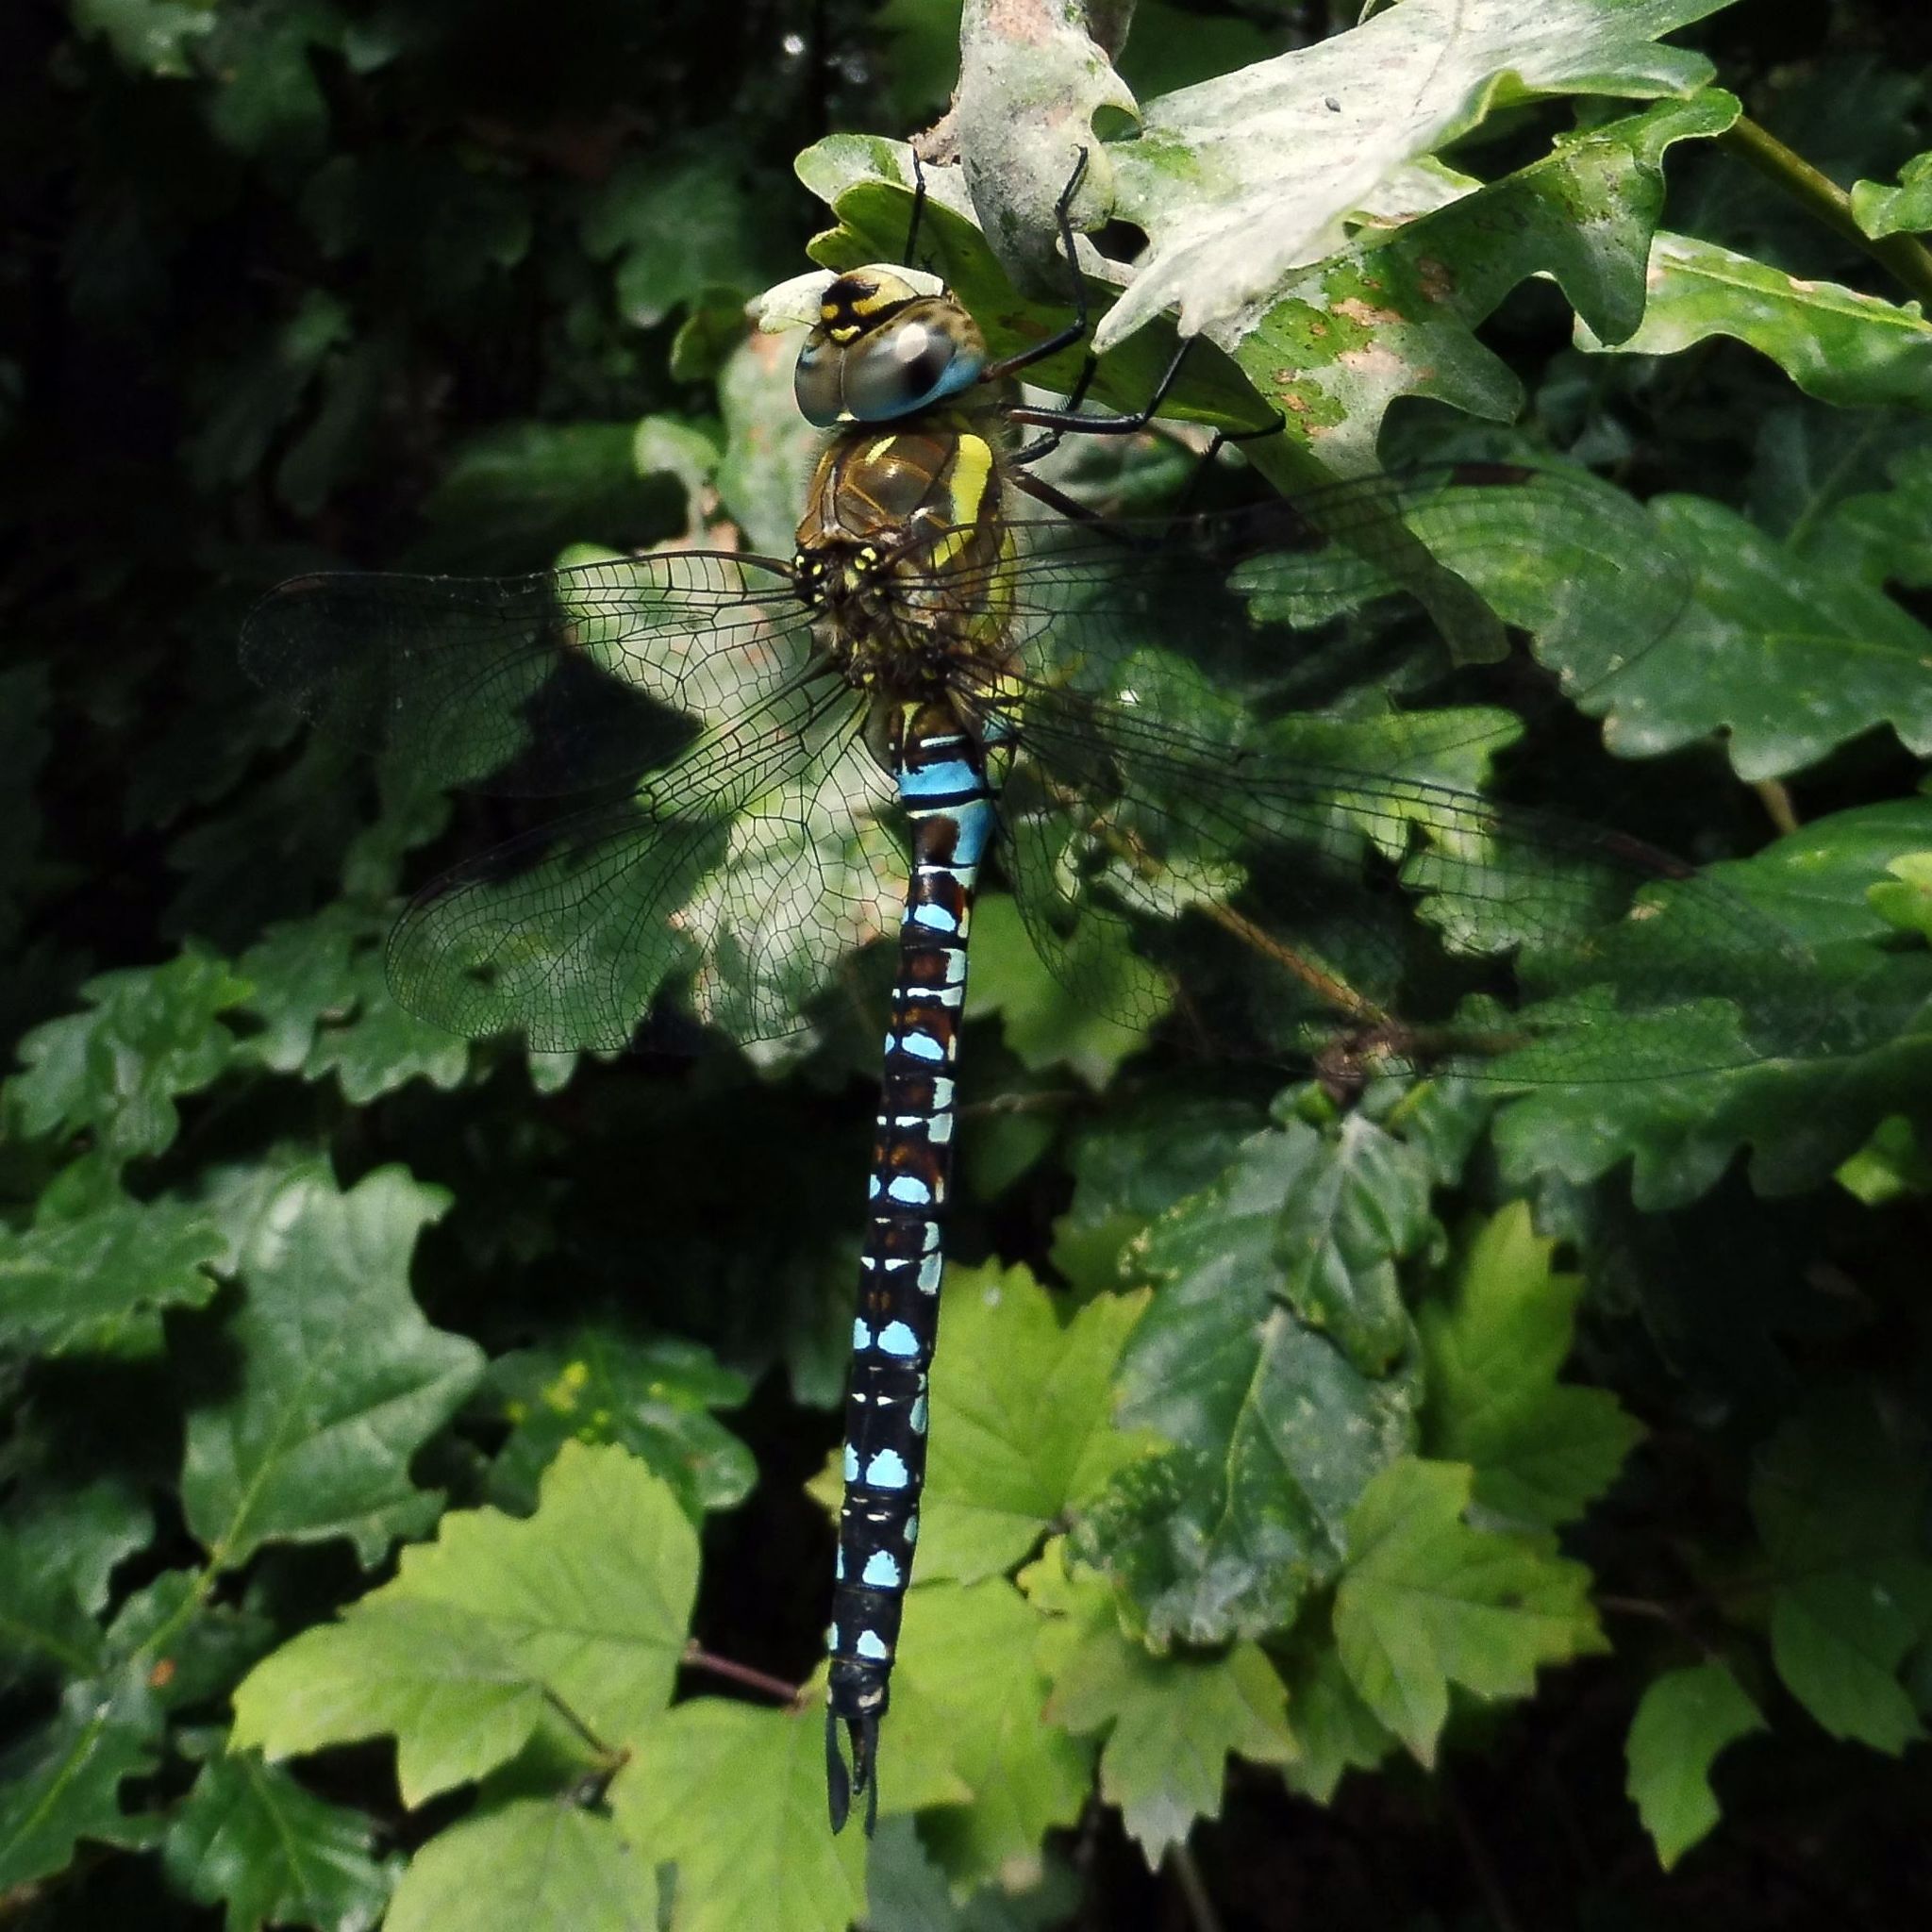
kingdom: Animalia
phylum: Arthropoda
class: Insecta
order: Odonata
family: Aeshnidae
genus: Aeshna
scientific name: Aeshna mixta
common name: Migrant hawker
